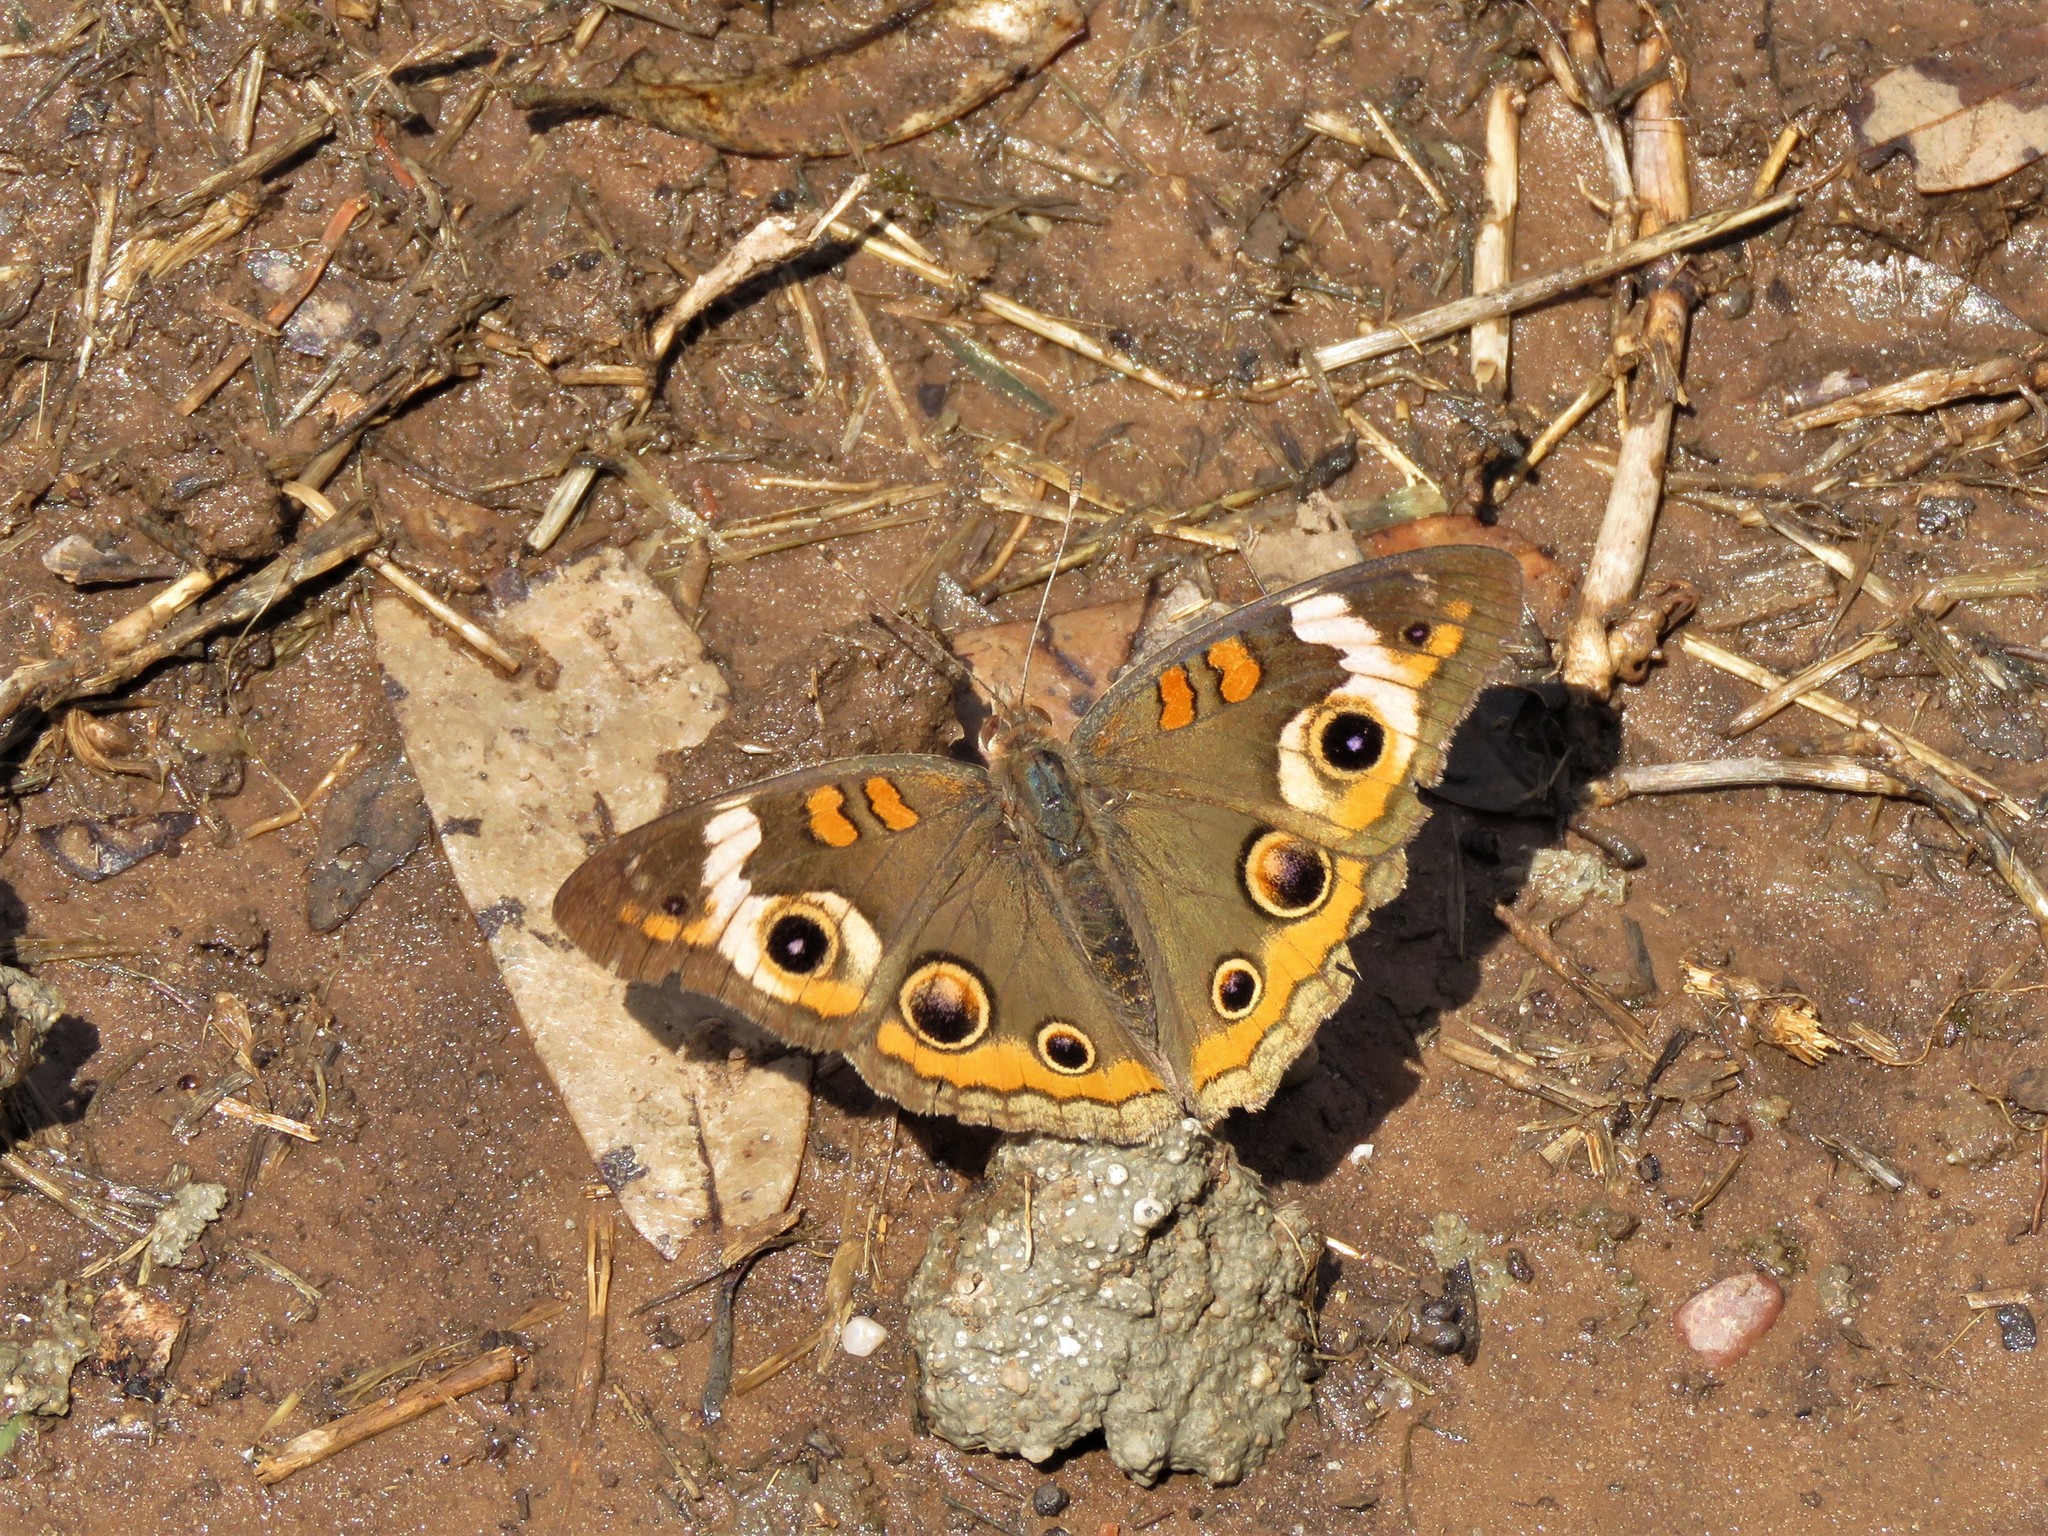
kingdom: Animalia
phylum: Arthropoda
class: Insecta
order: Lepidoptera
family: Nymphalidae
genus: Junonia
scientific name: Junonia coenia
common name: Common buckeye
